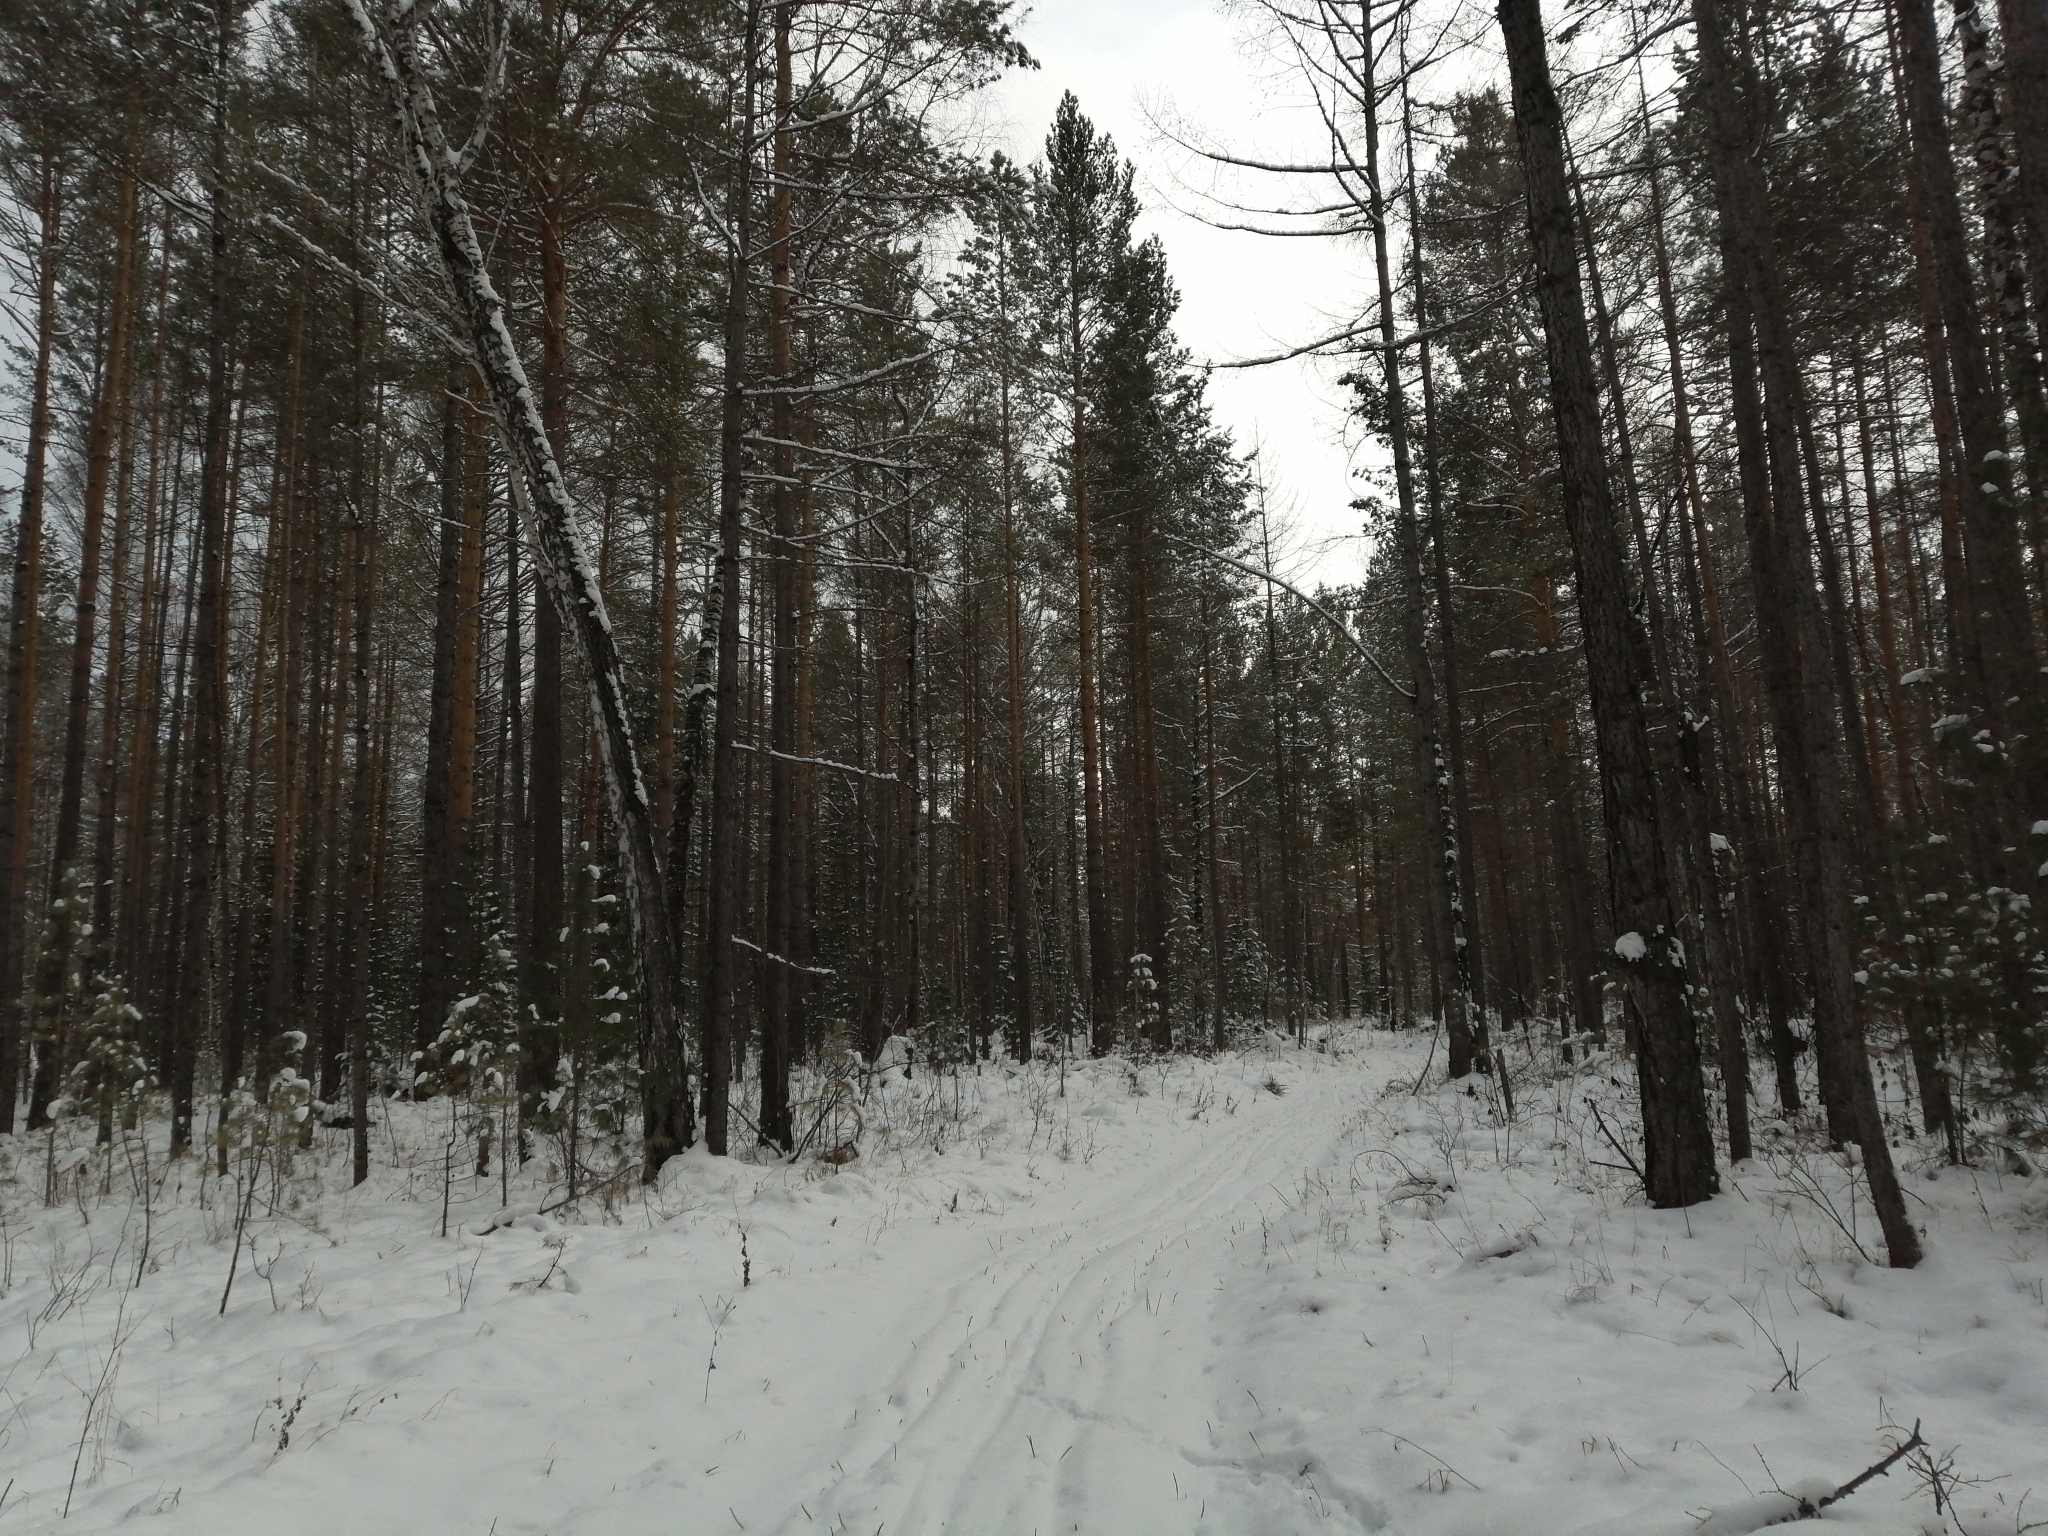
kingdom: Plantae
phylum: Tracheophyta
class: Pinopsida
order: Pinales
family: Pinaceae
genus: Pinus
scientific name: Pinus sylvestris
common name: Scots pine
